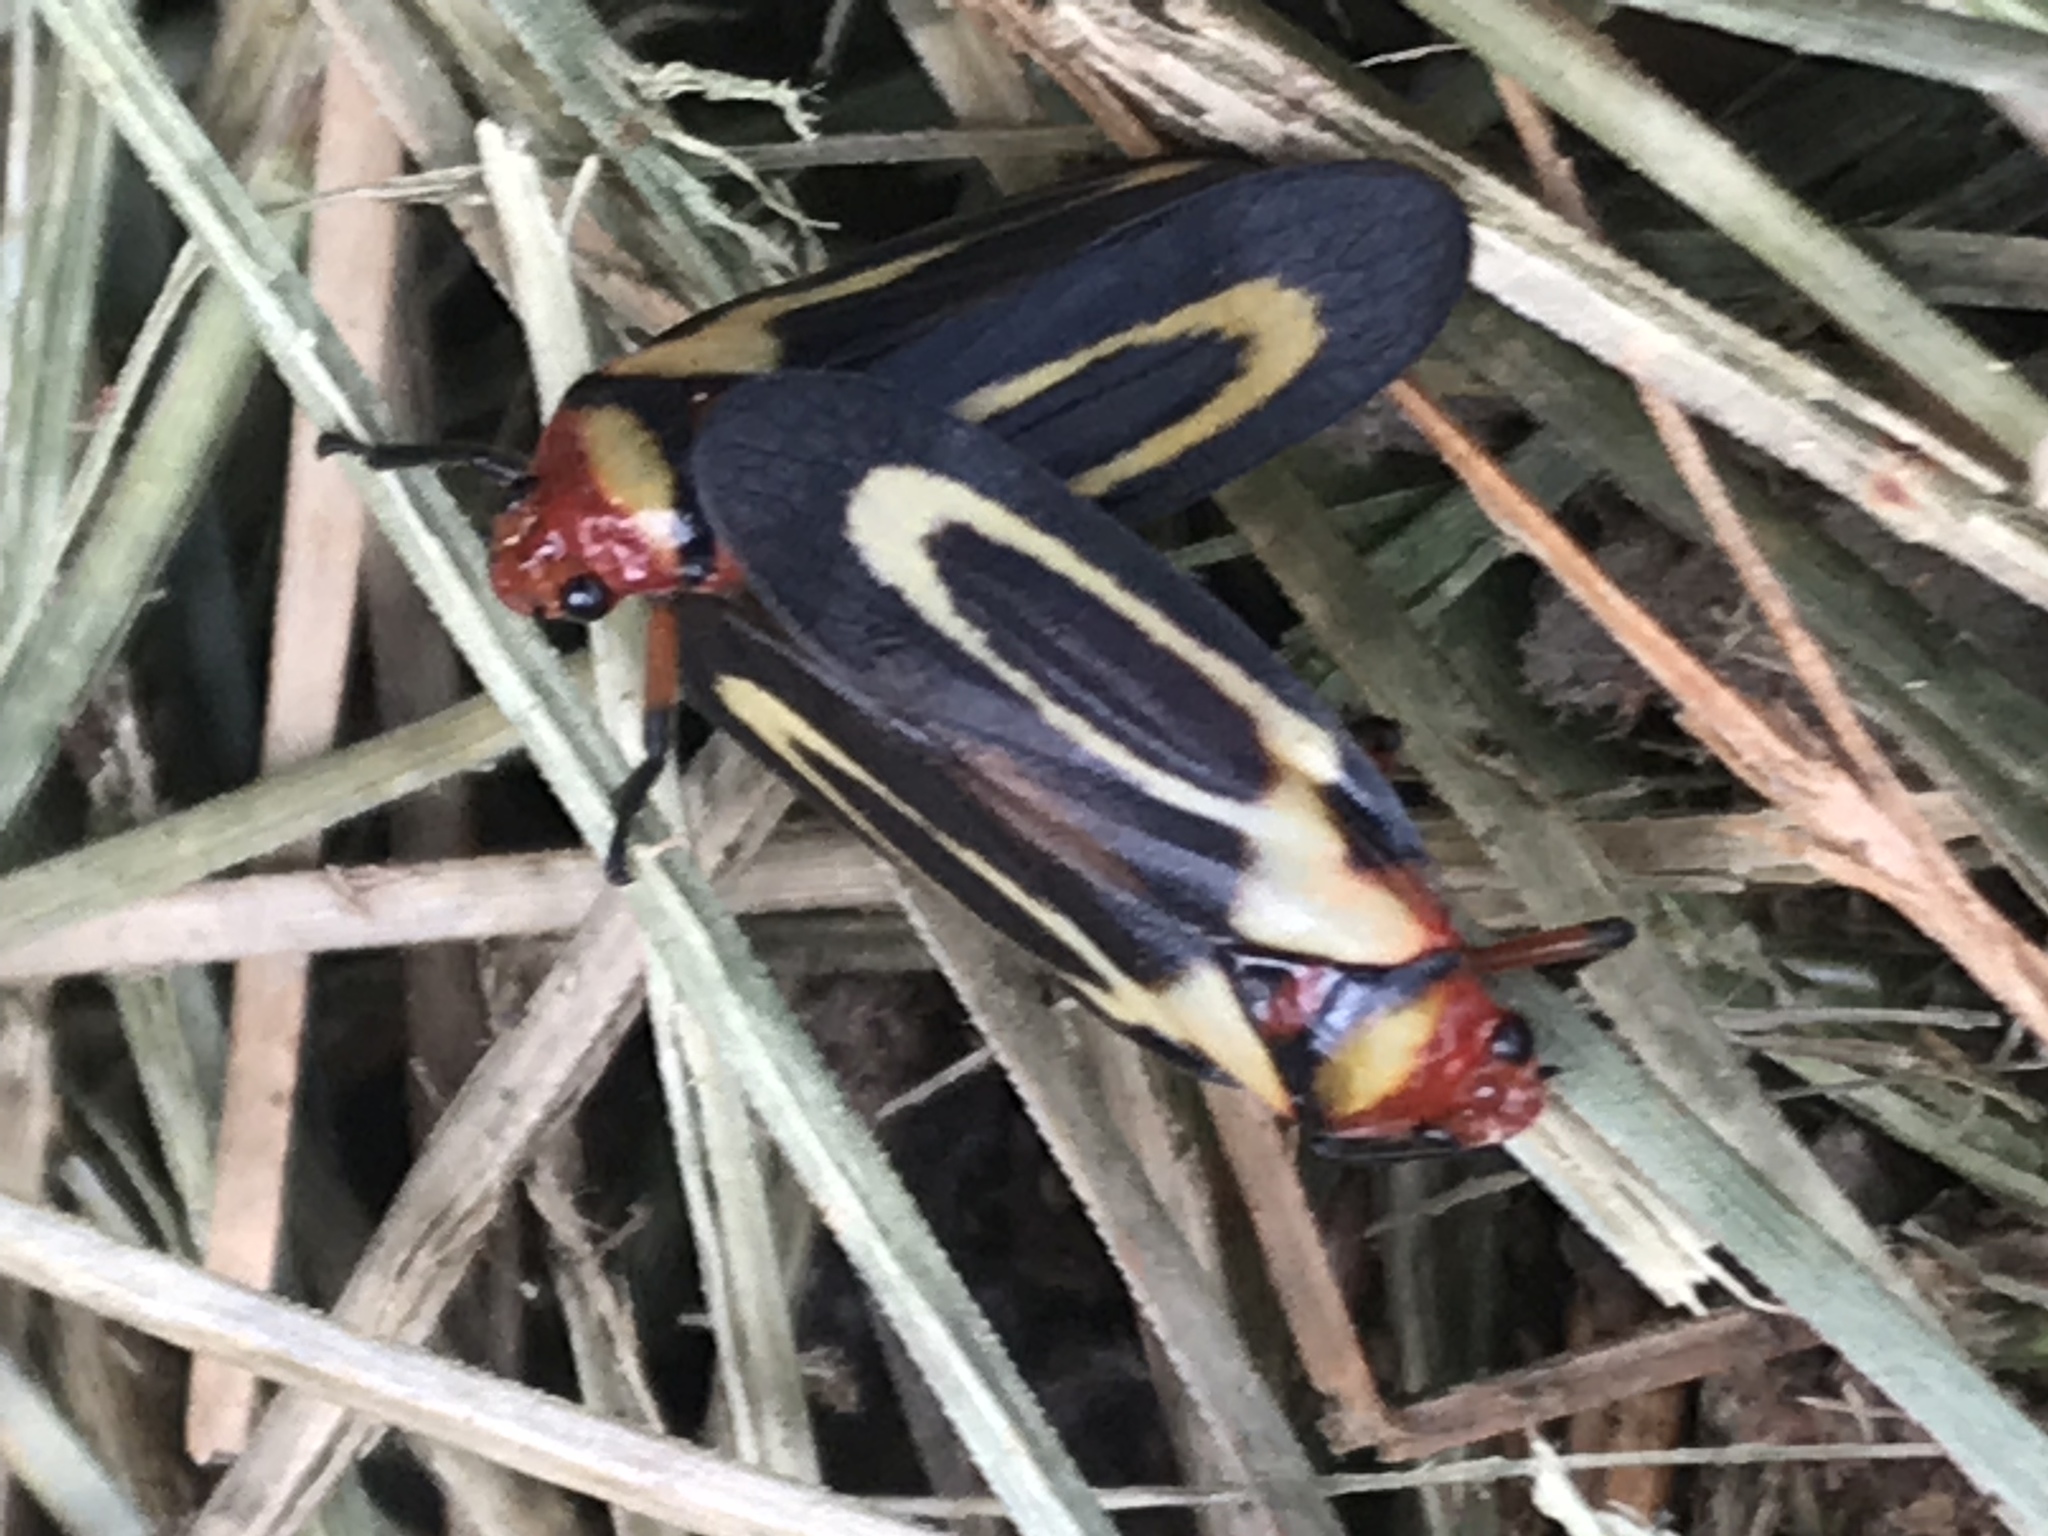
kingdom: Animalia
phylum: Arthropoda
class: Insecta
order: Hemiptera
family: Cercopidae
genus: Ocoaxo
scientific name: Ocoaxo
